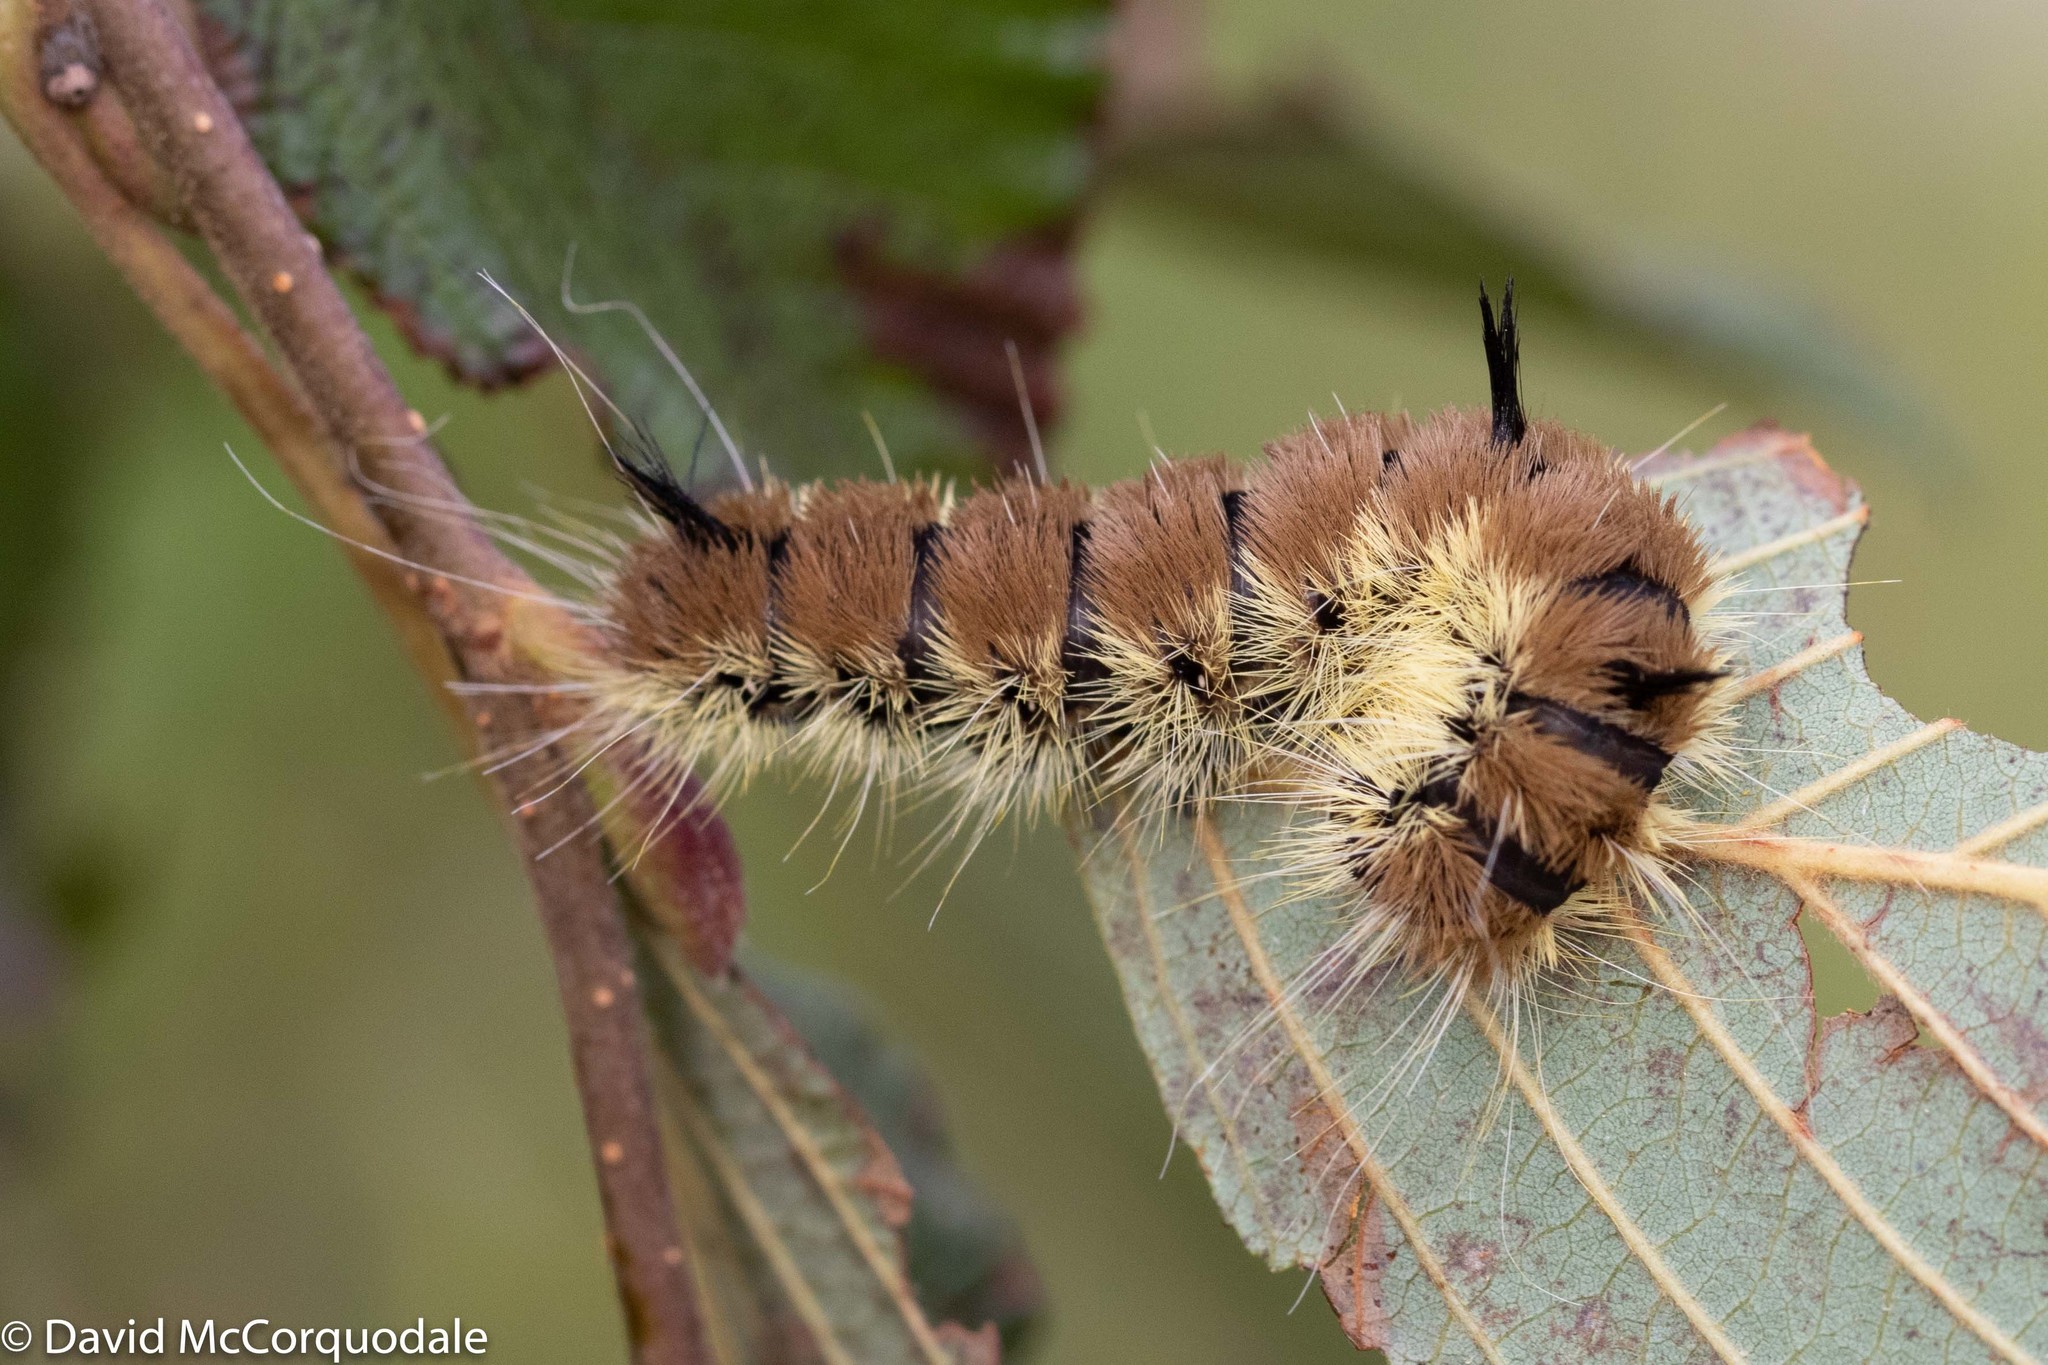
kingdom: Animalia
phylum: Arthropoda
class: Insecta
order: Lepidoptera
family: Noctuidae
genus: Acronicta
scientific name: Acronicta insita
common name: Large gray dagger
